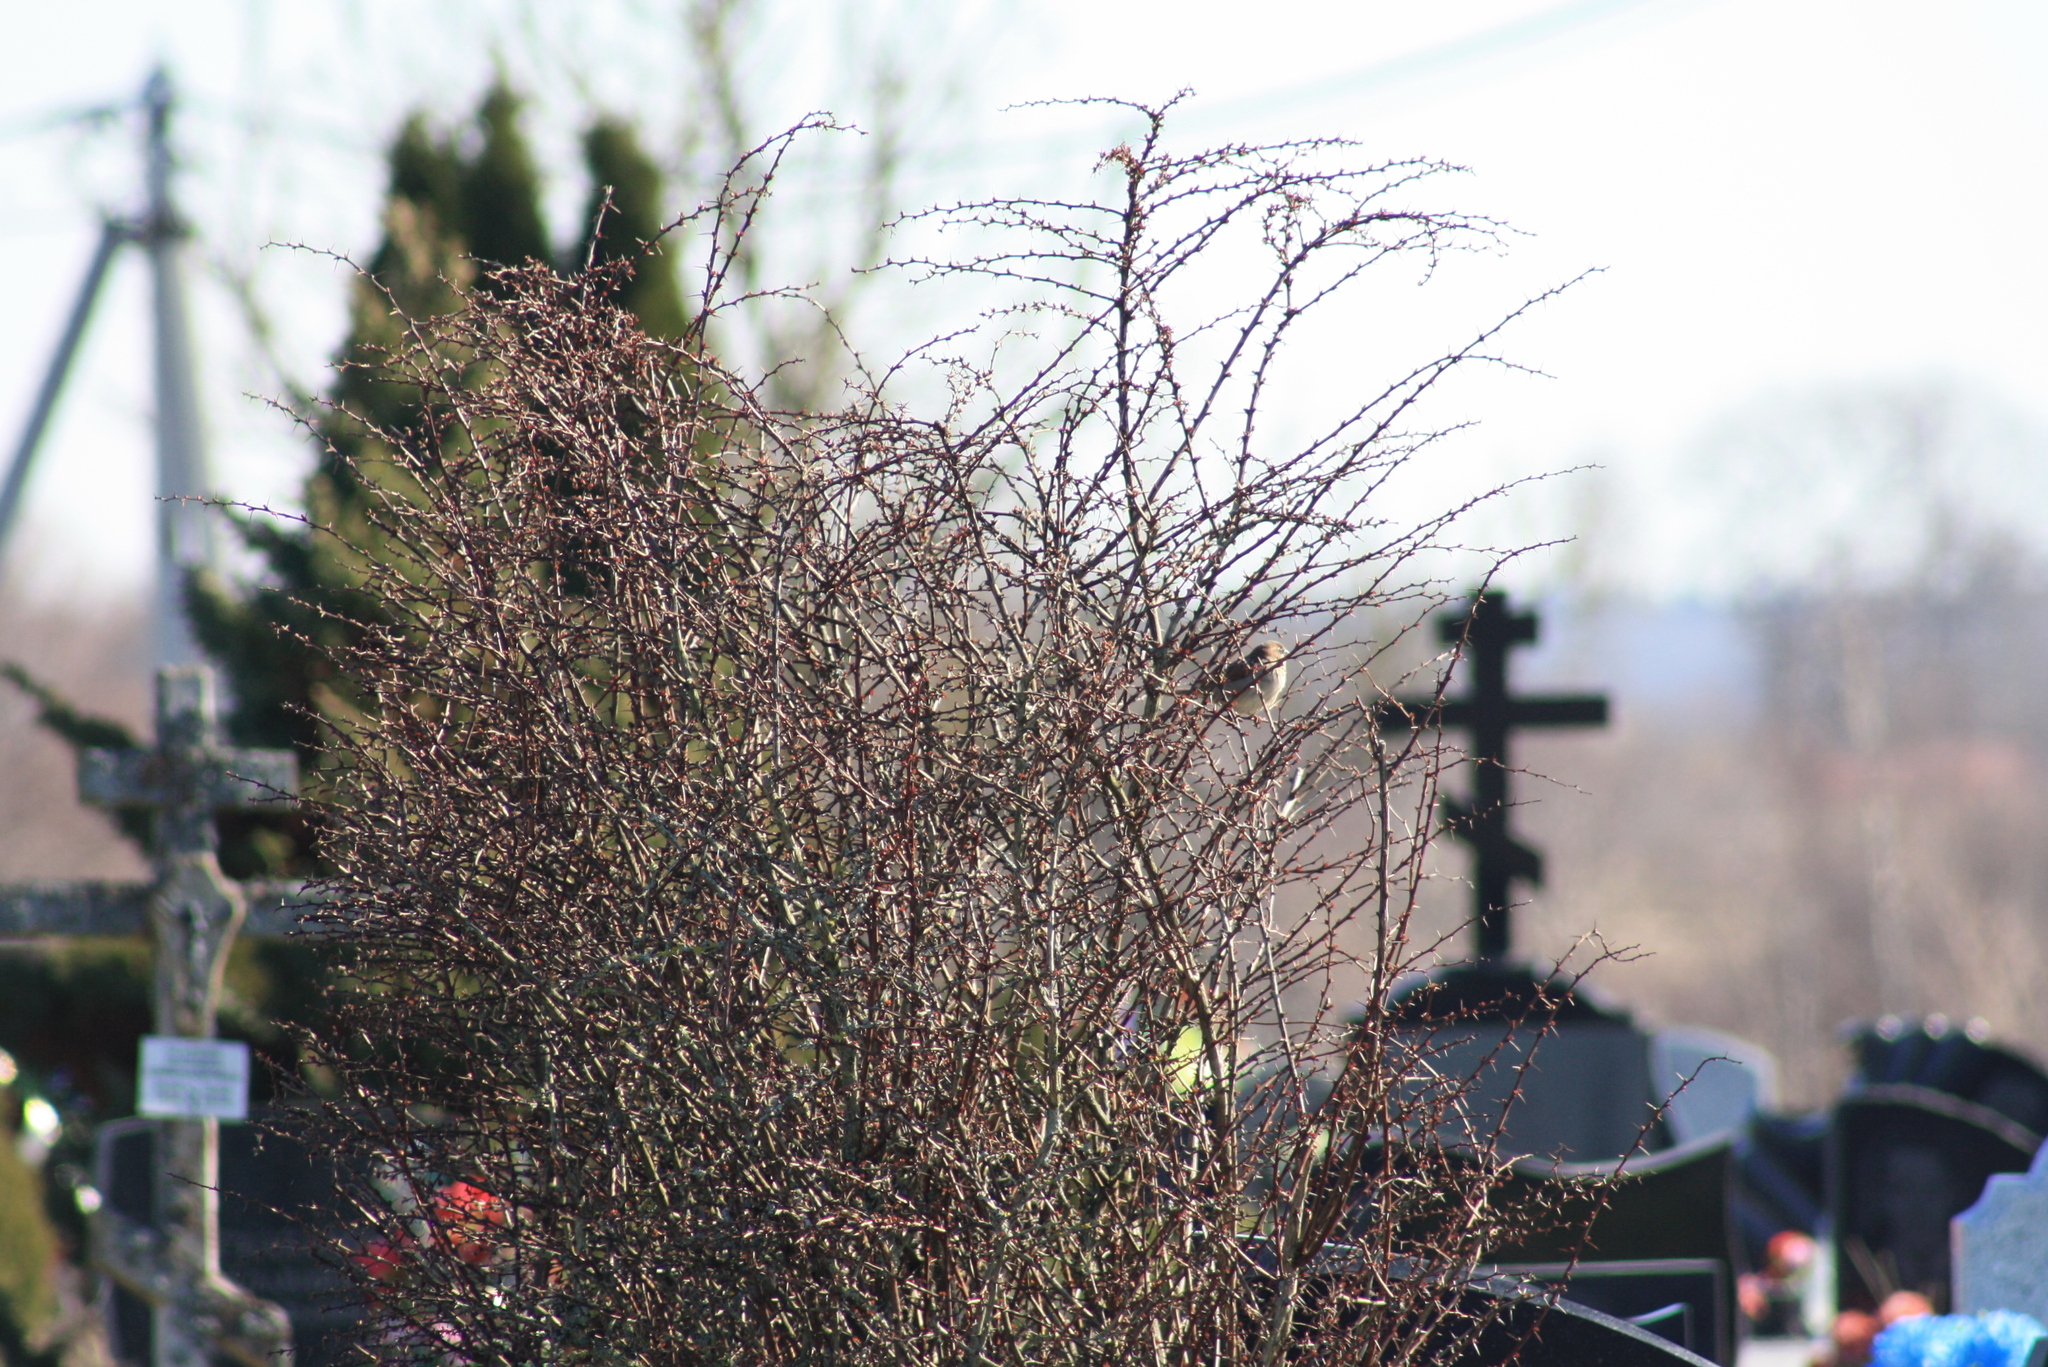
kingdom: Animalia
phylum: Chordata
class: Aves
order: Passeriformes
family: Passeridae
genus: Passer
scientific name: Passer domesticus
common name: House sparrow
